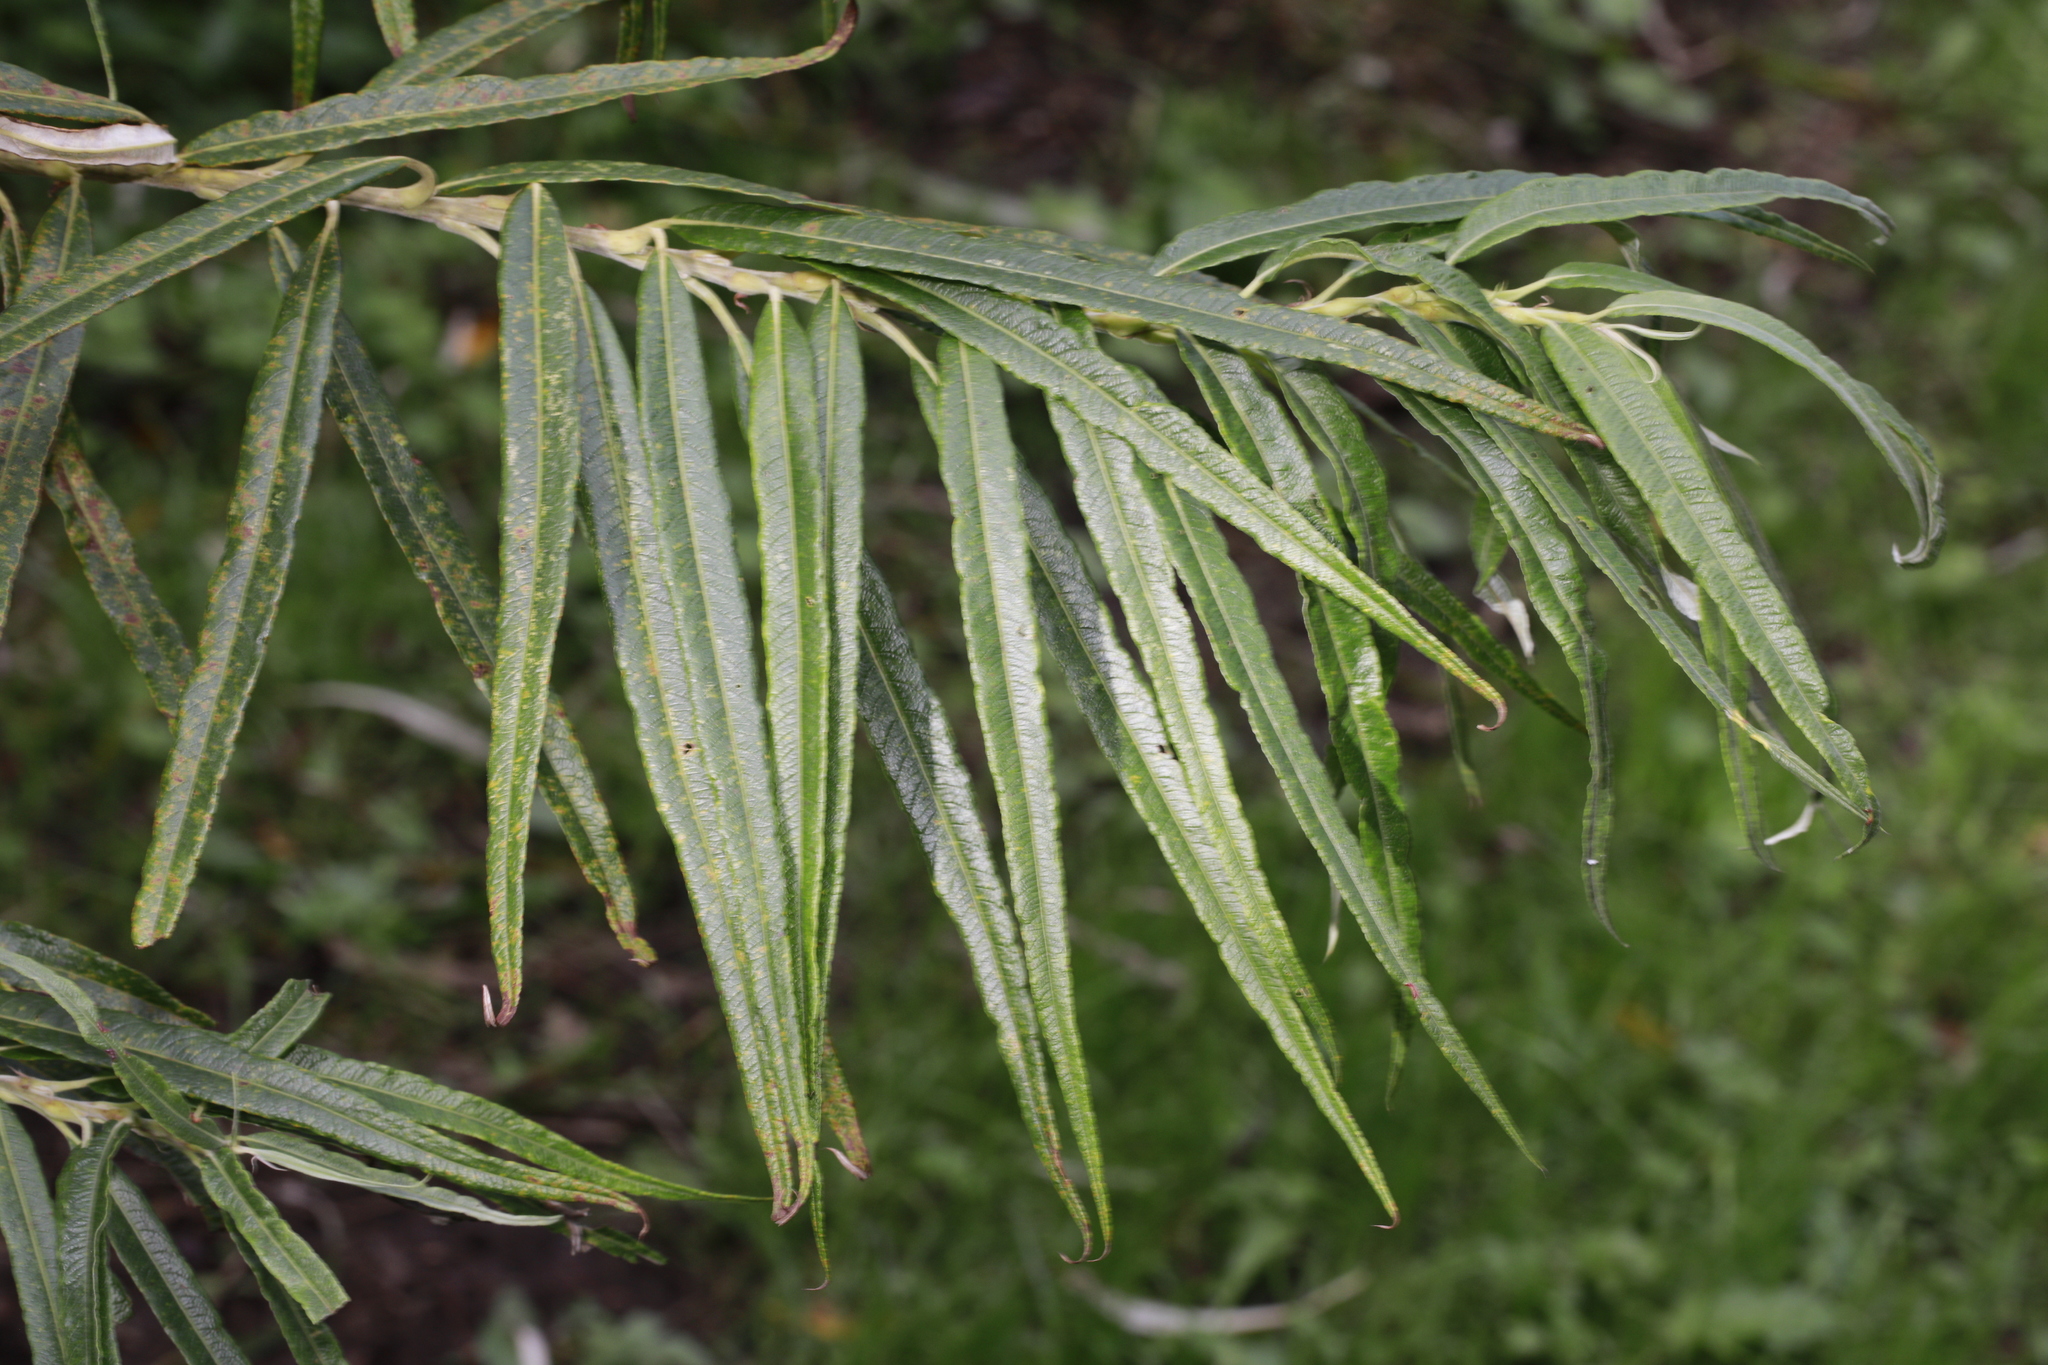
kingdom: Plantae
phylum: Tracheophyta
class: Magnoliopsida
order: Malpighiales
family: Salicaceae
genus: Salix
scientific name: Salix viminalis
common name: Osier
